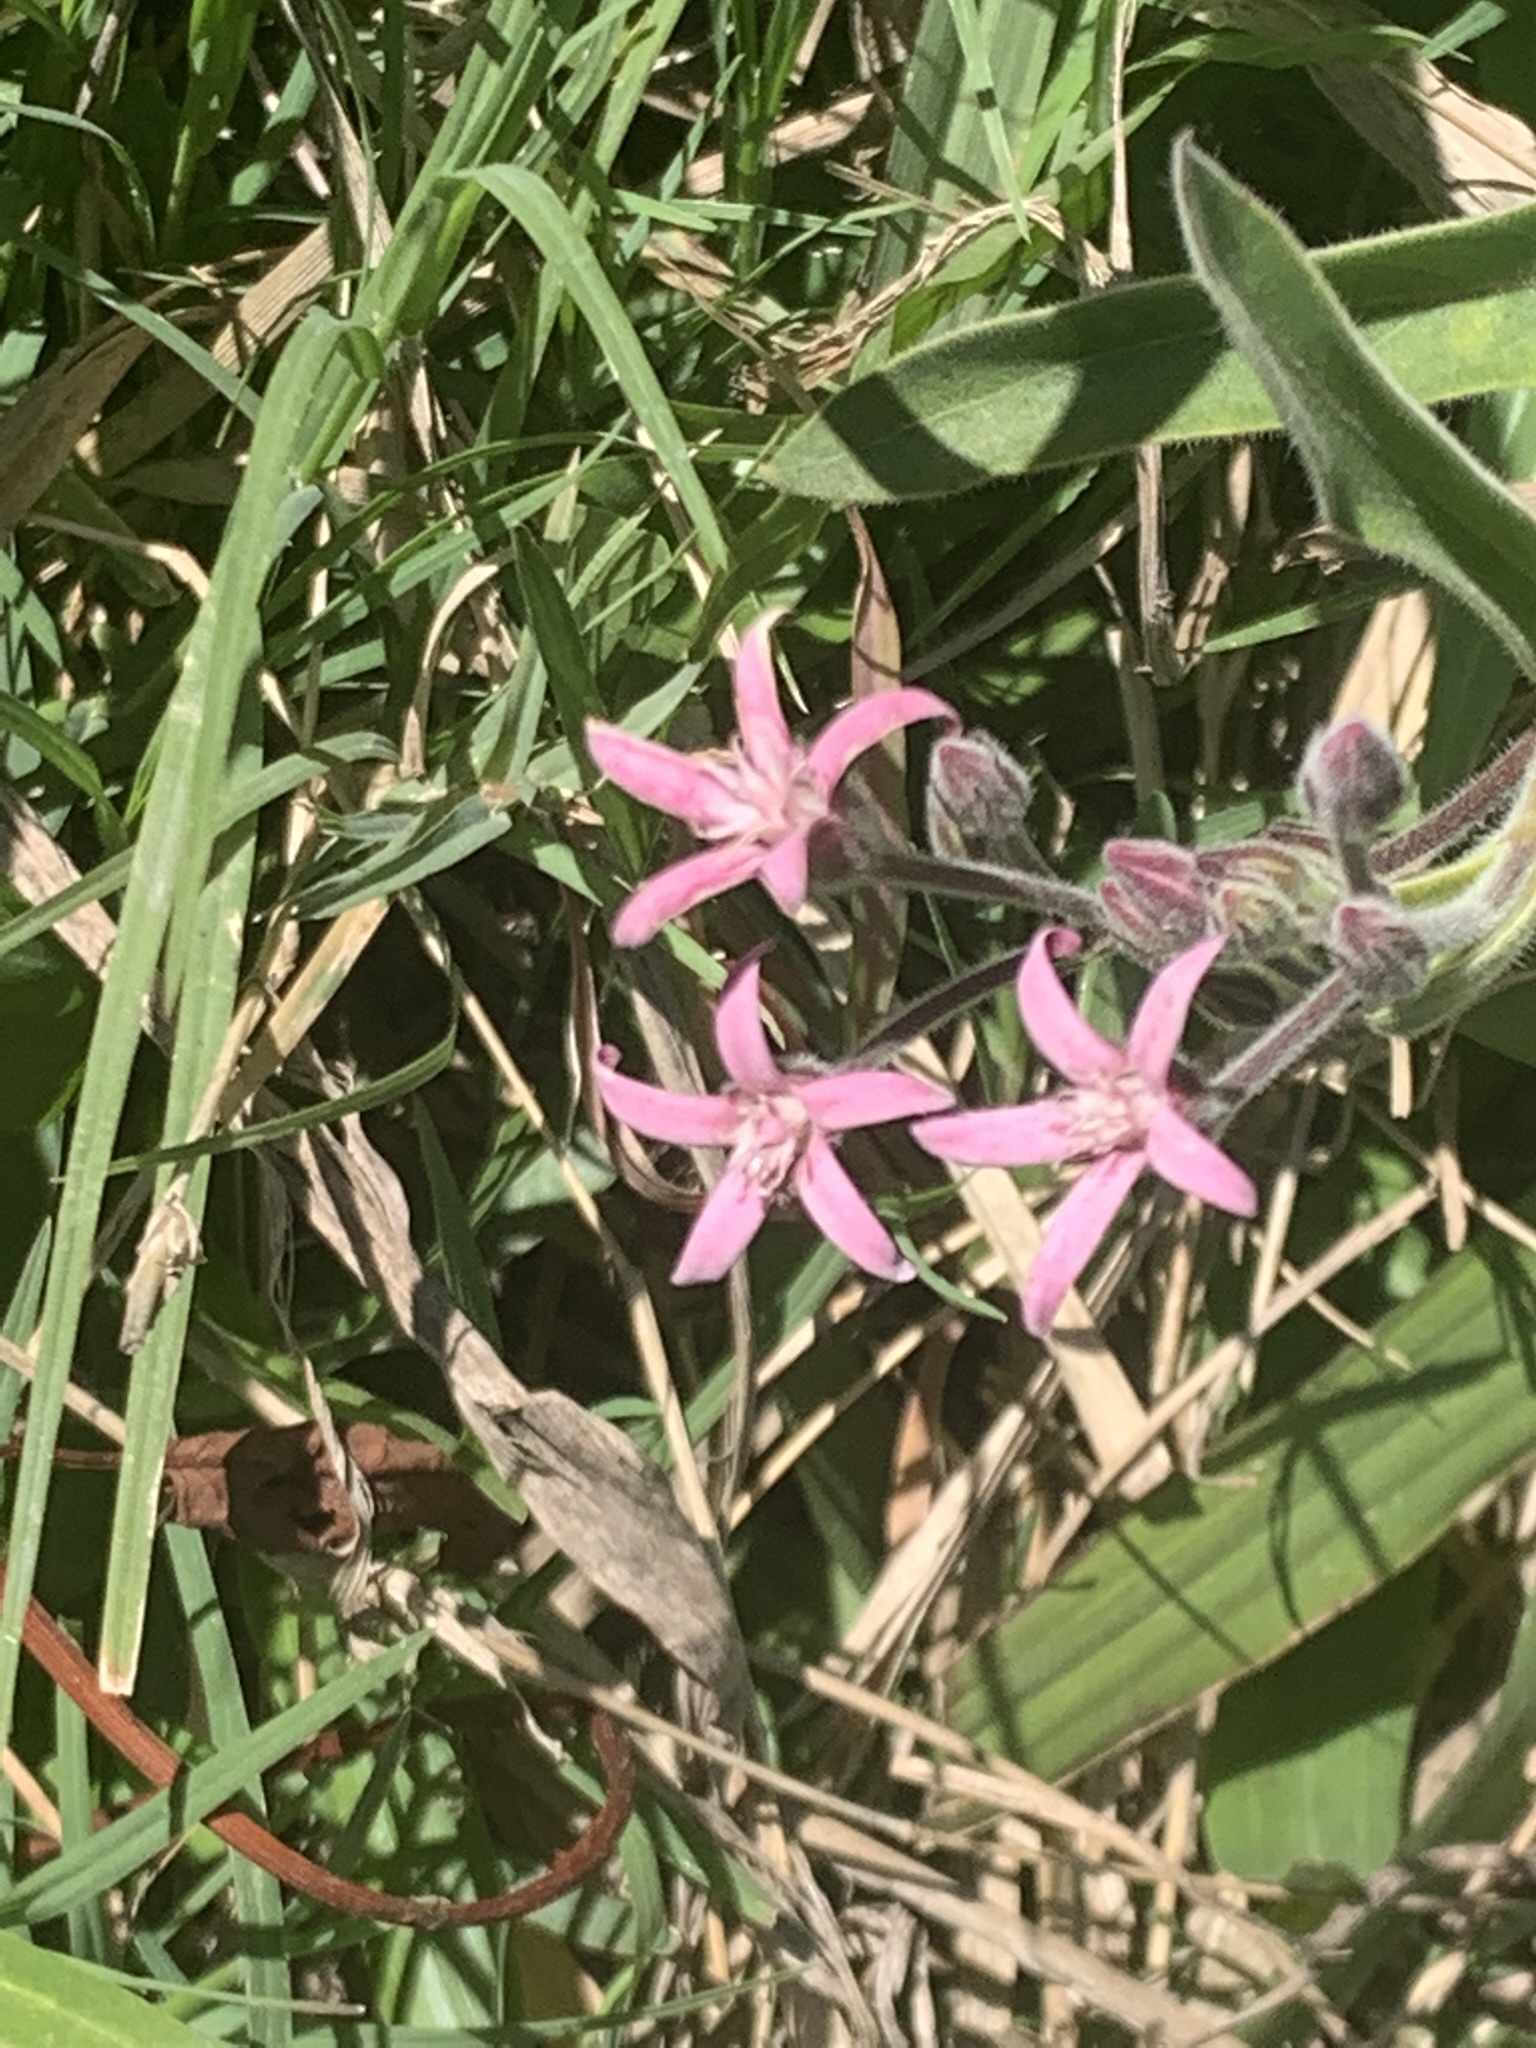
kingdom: Plantae
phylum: Tracheophyta
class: Magnoliopsida
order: Gentianales
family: Apocynaceae
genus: Oxypetalum
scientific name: Oxypetalum solanoides
